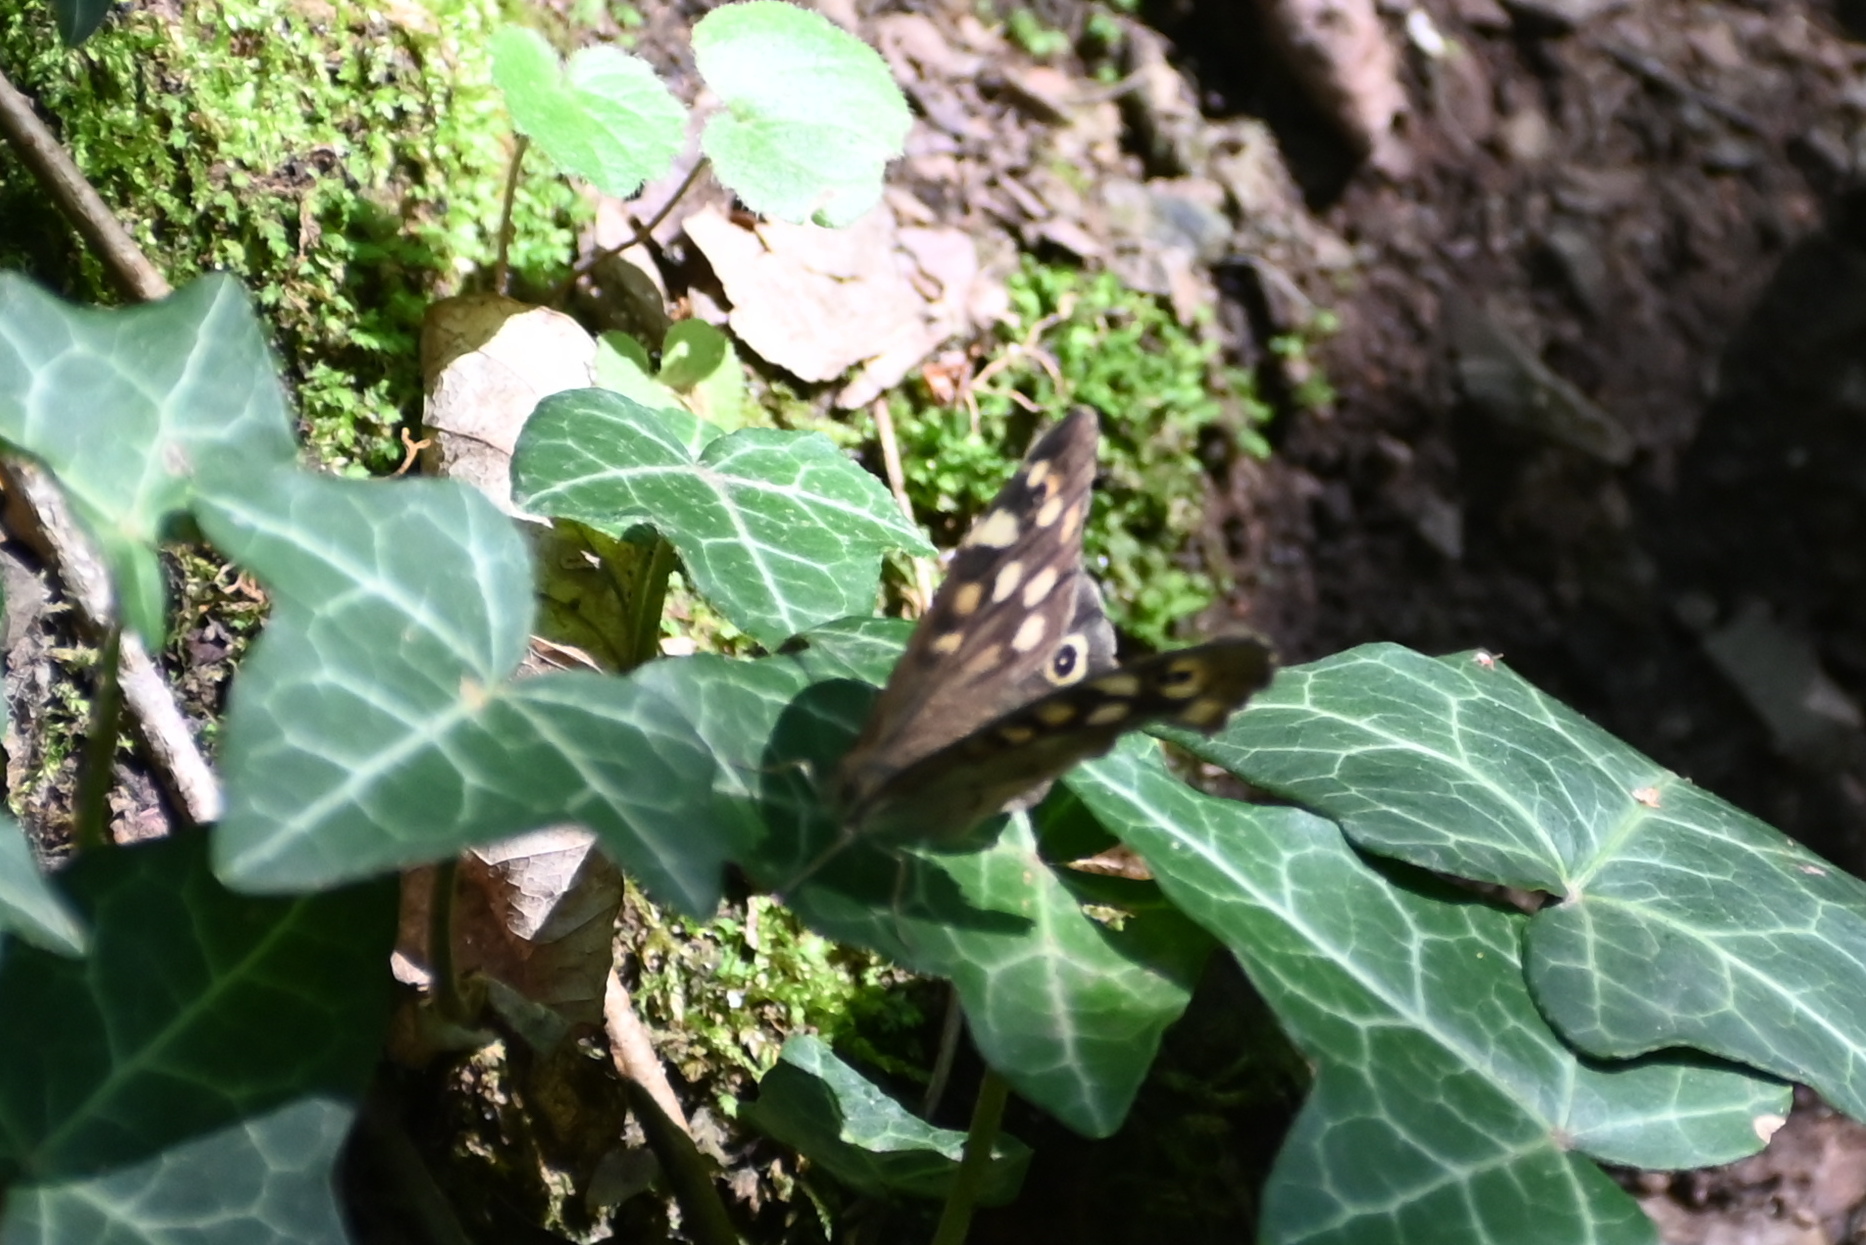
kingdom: Animalia
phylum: Arthropoda
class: Insecta
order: Lepidoptera
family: Nymphalidae
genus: Pararge
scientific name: Pararge aegeria
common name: Speckled wood
